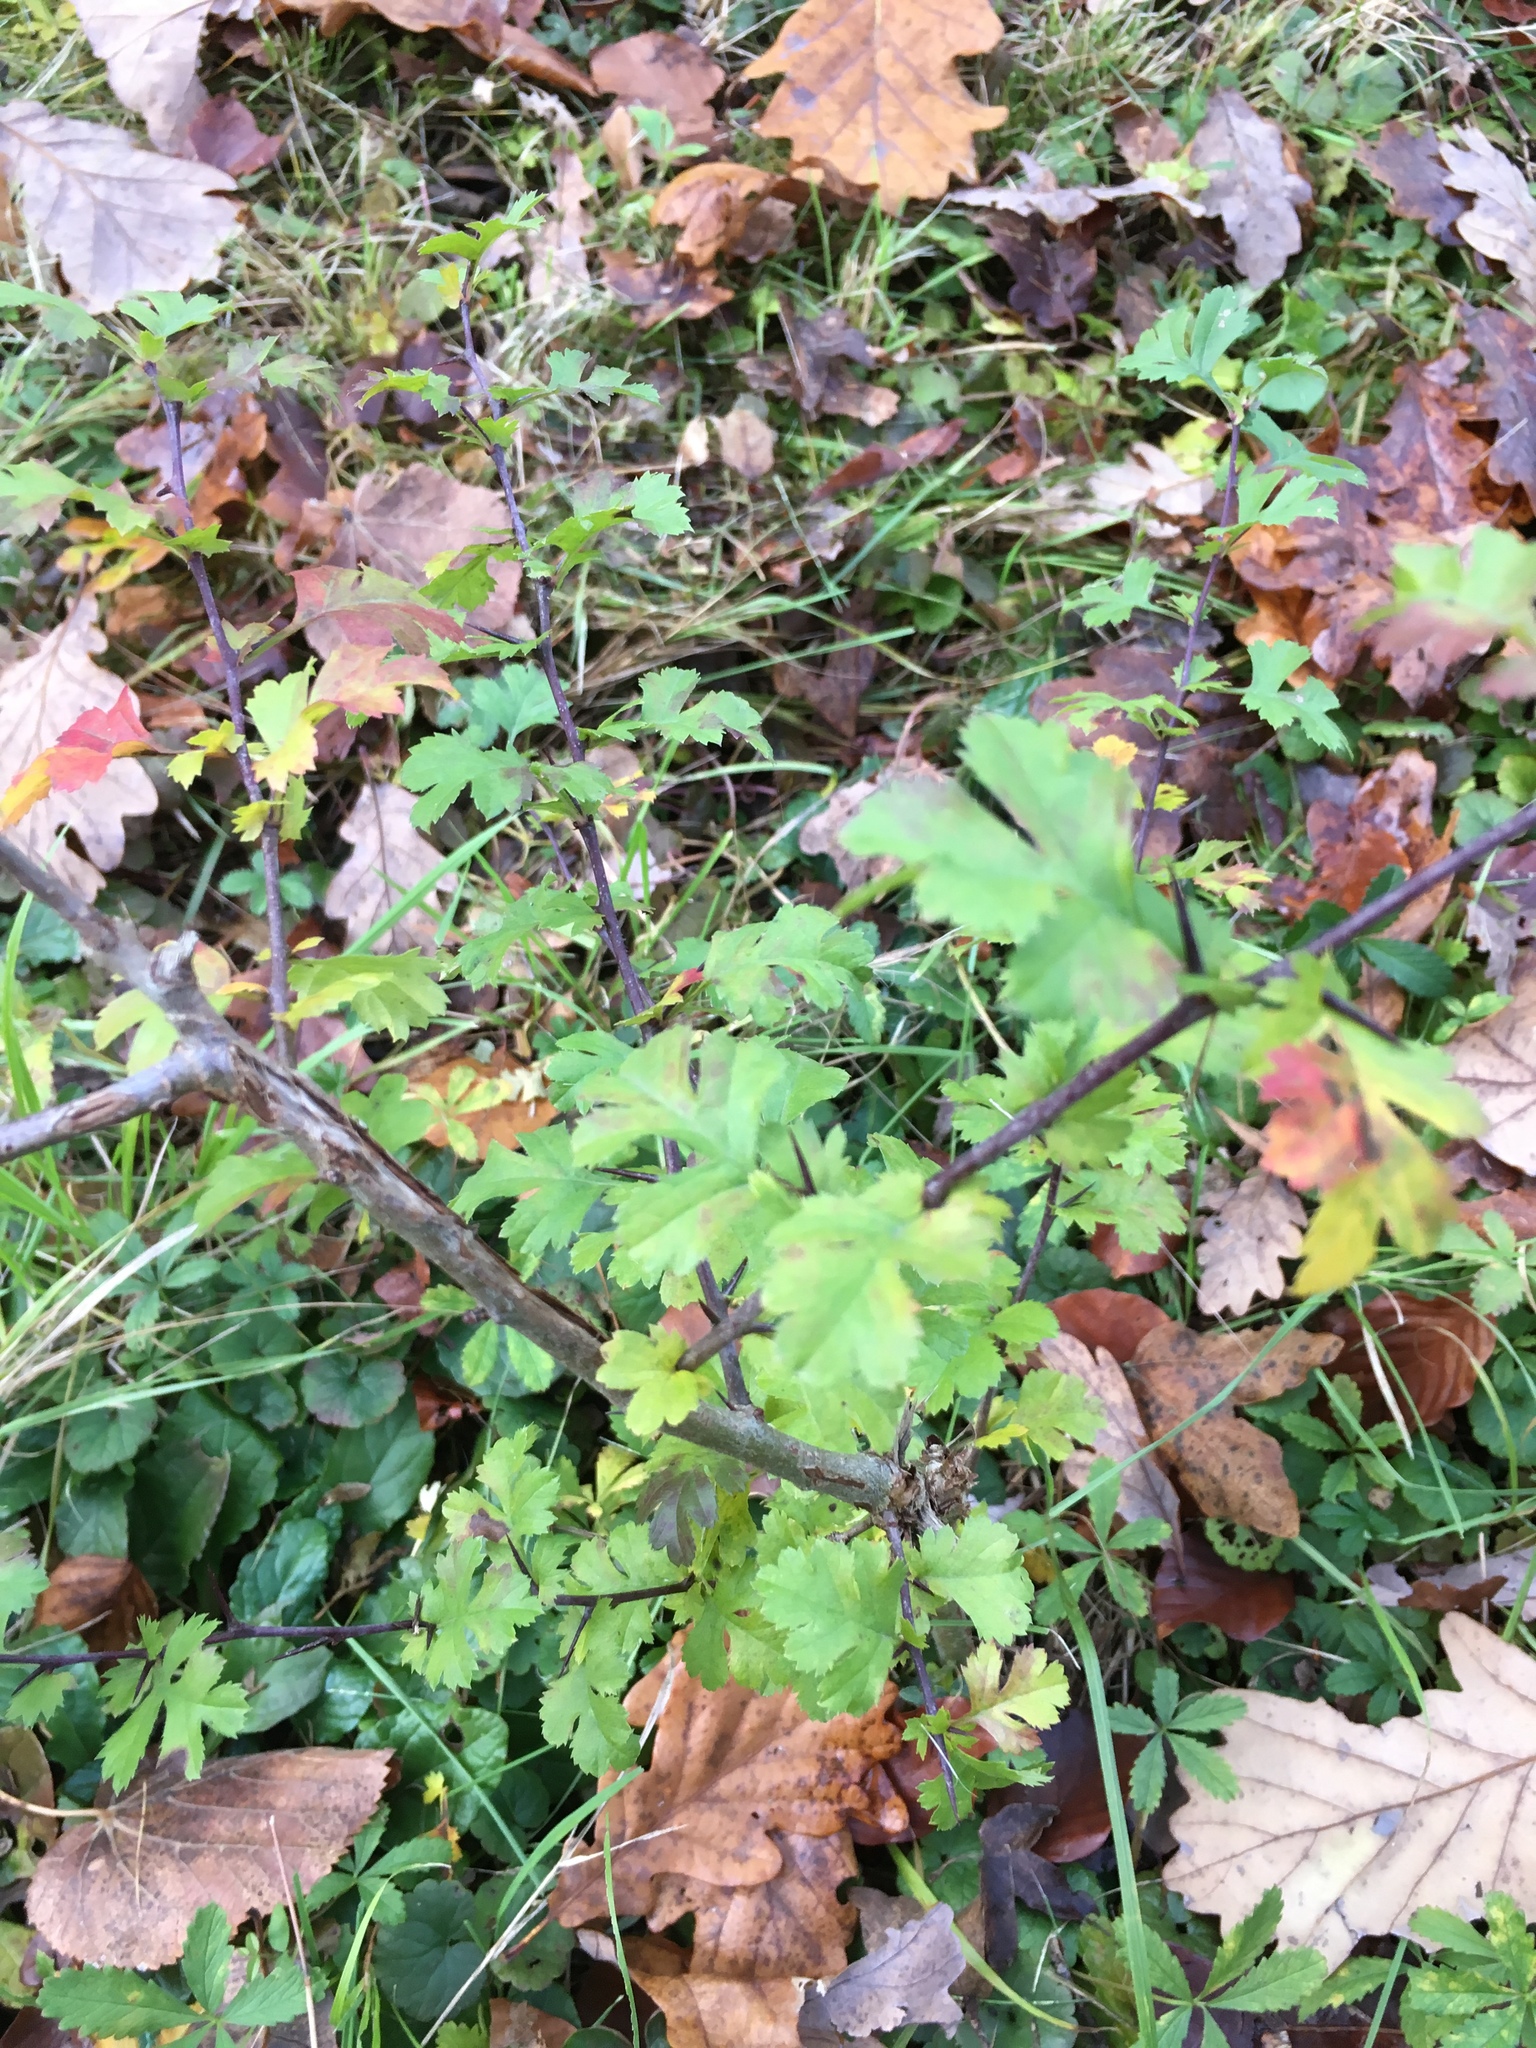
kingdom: Plantae
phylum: Tracheophyta
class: Magnoliopsida
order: Rosales
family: Rosaceae
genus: Crataegus
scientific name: Crataegus monogyna
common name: Hawthorn
